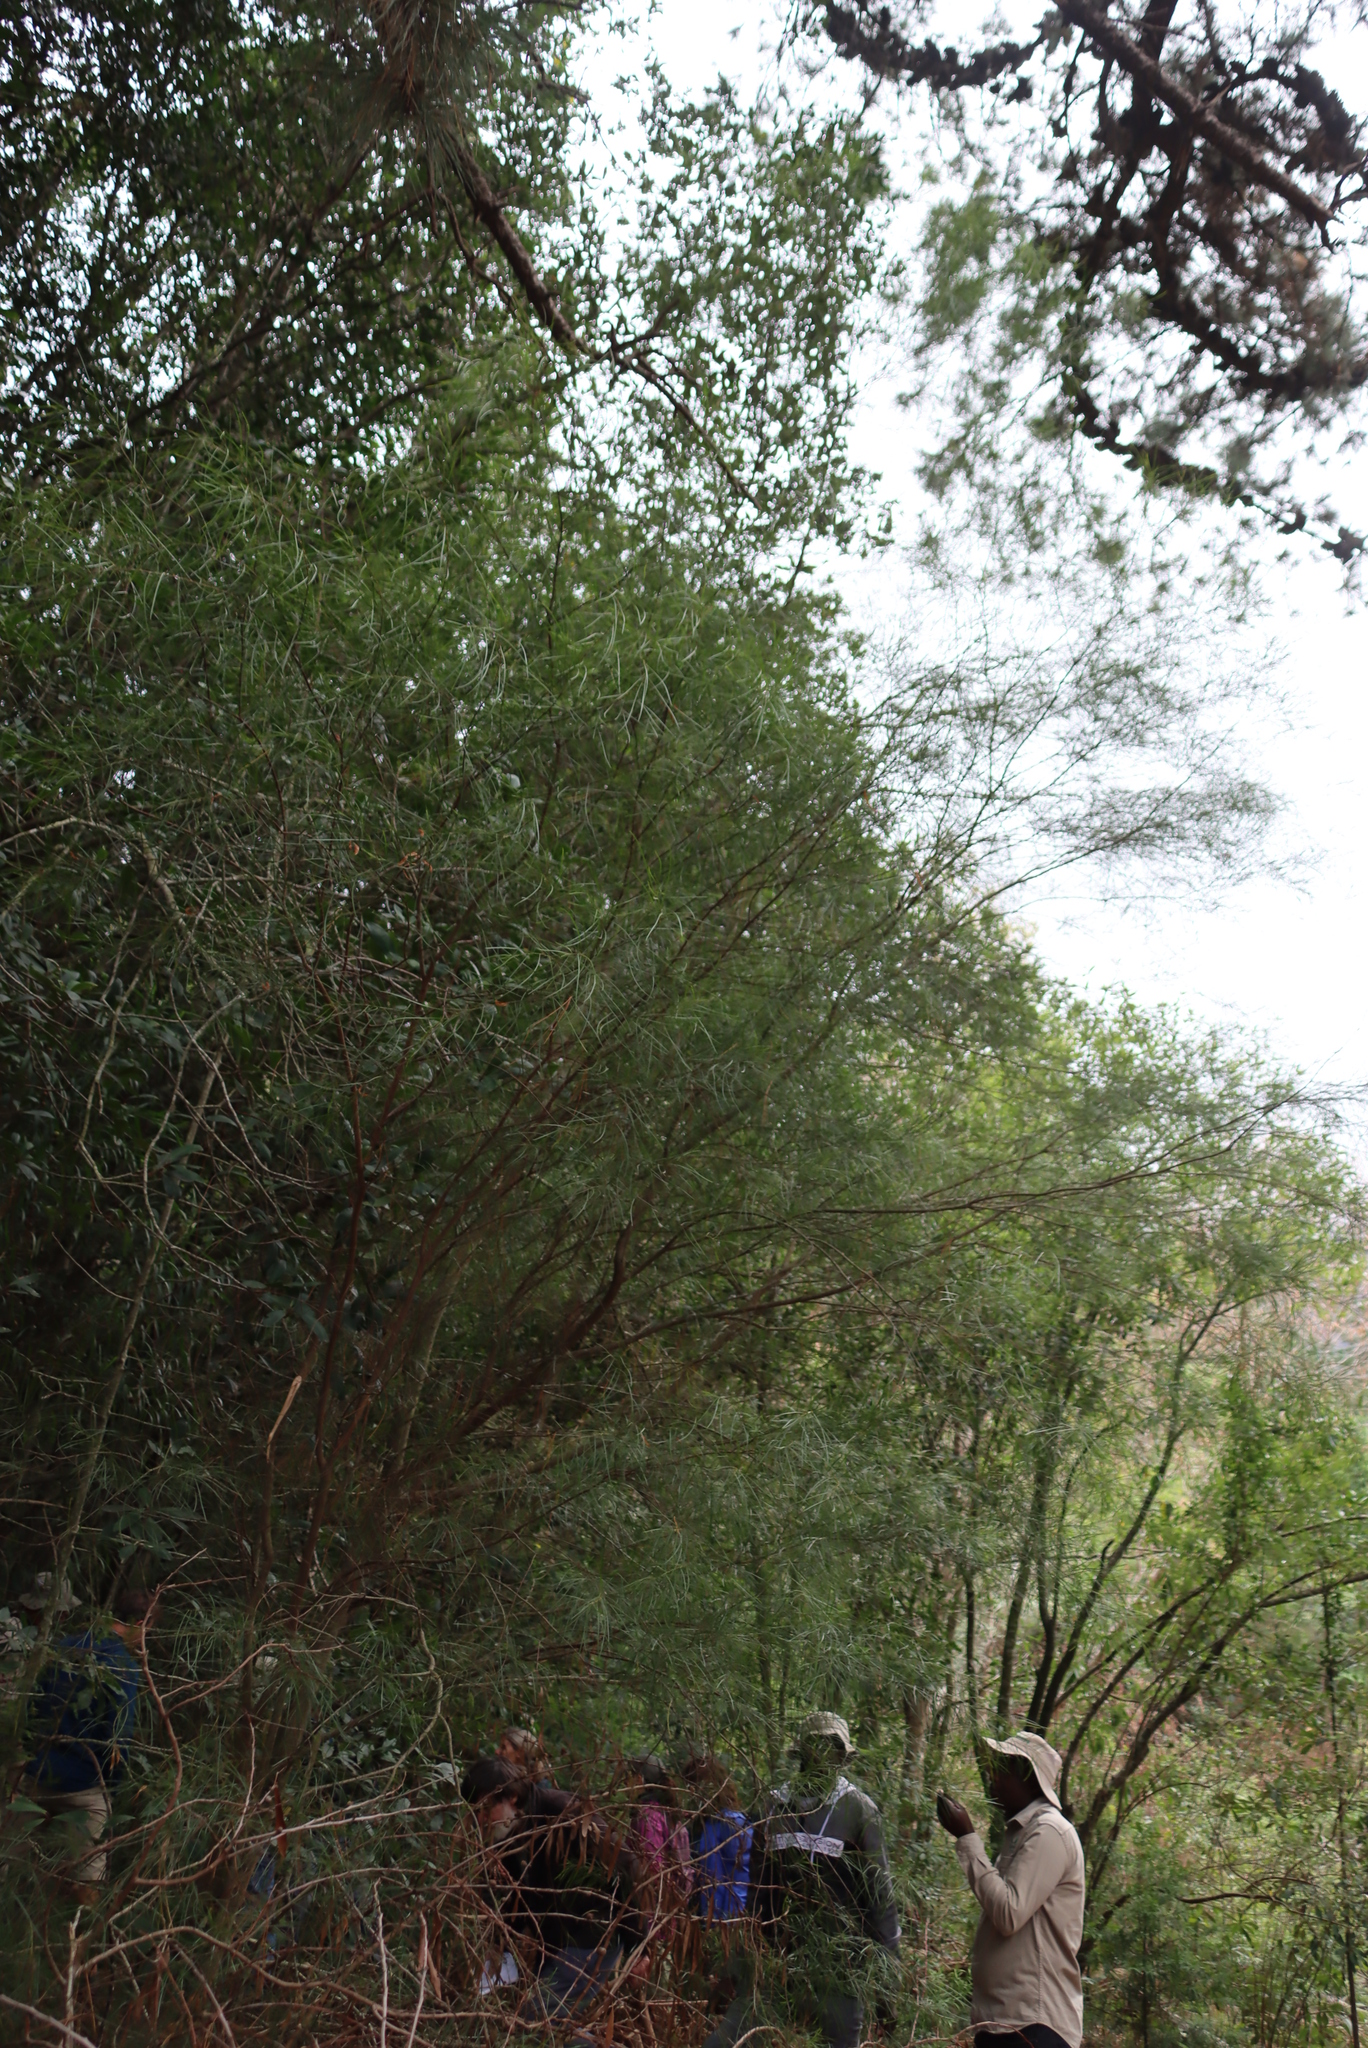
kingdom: Plantae
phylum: Tracheophyta
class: Magnoliopsida
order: Fabales
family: Fabaceae
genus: Acacia
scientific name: Acacia viscidula
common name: Sticky wattle
